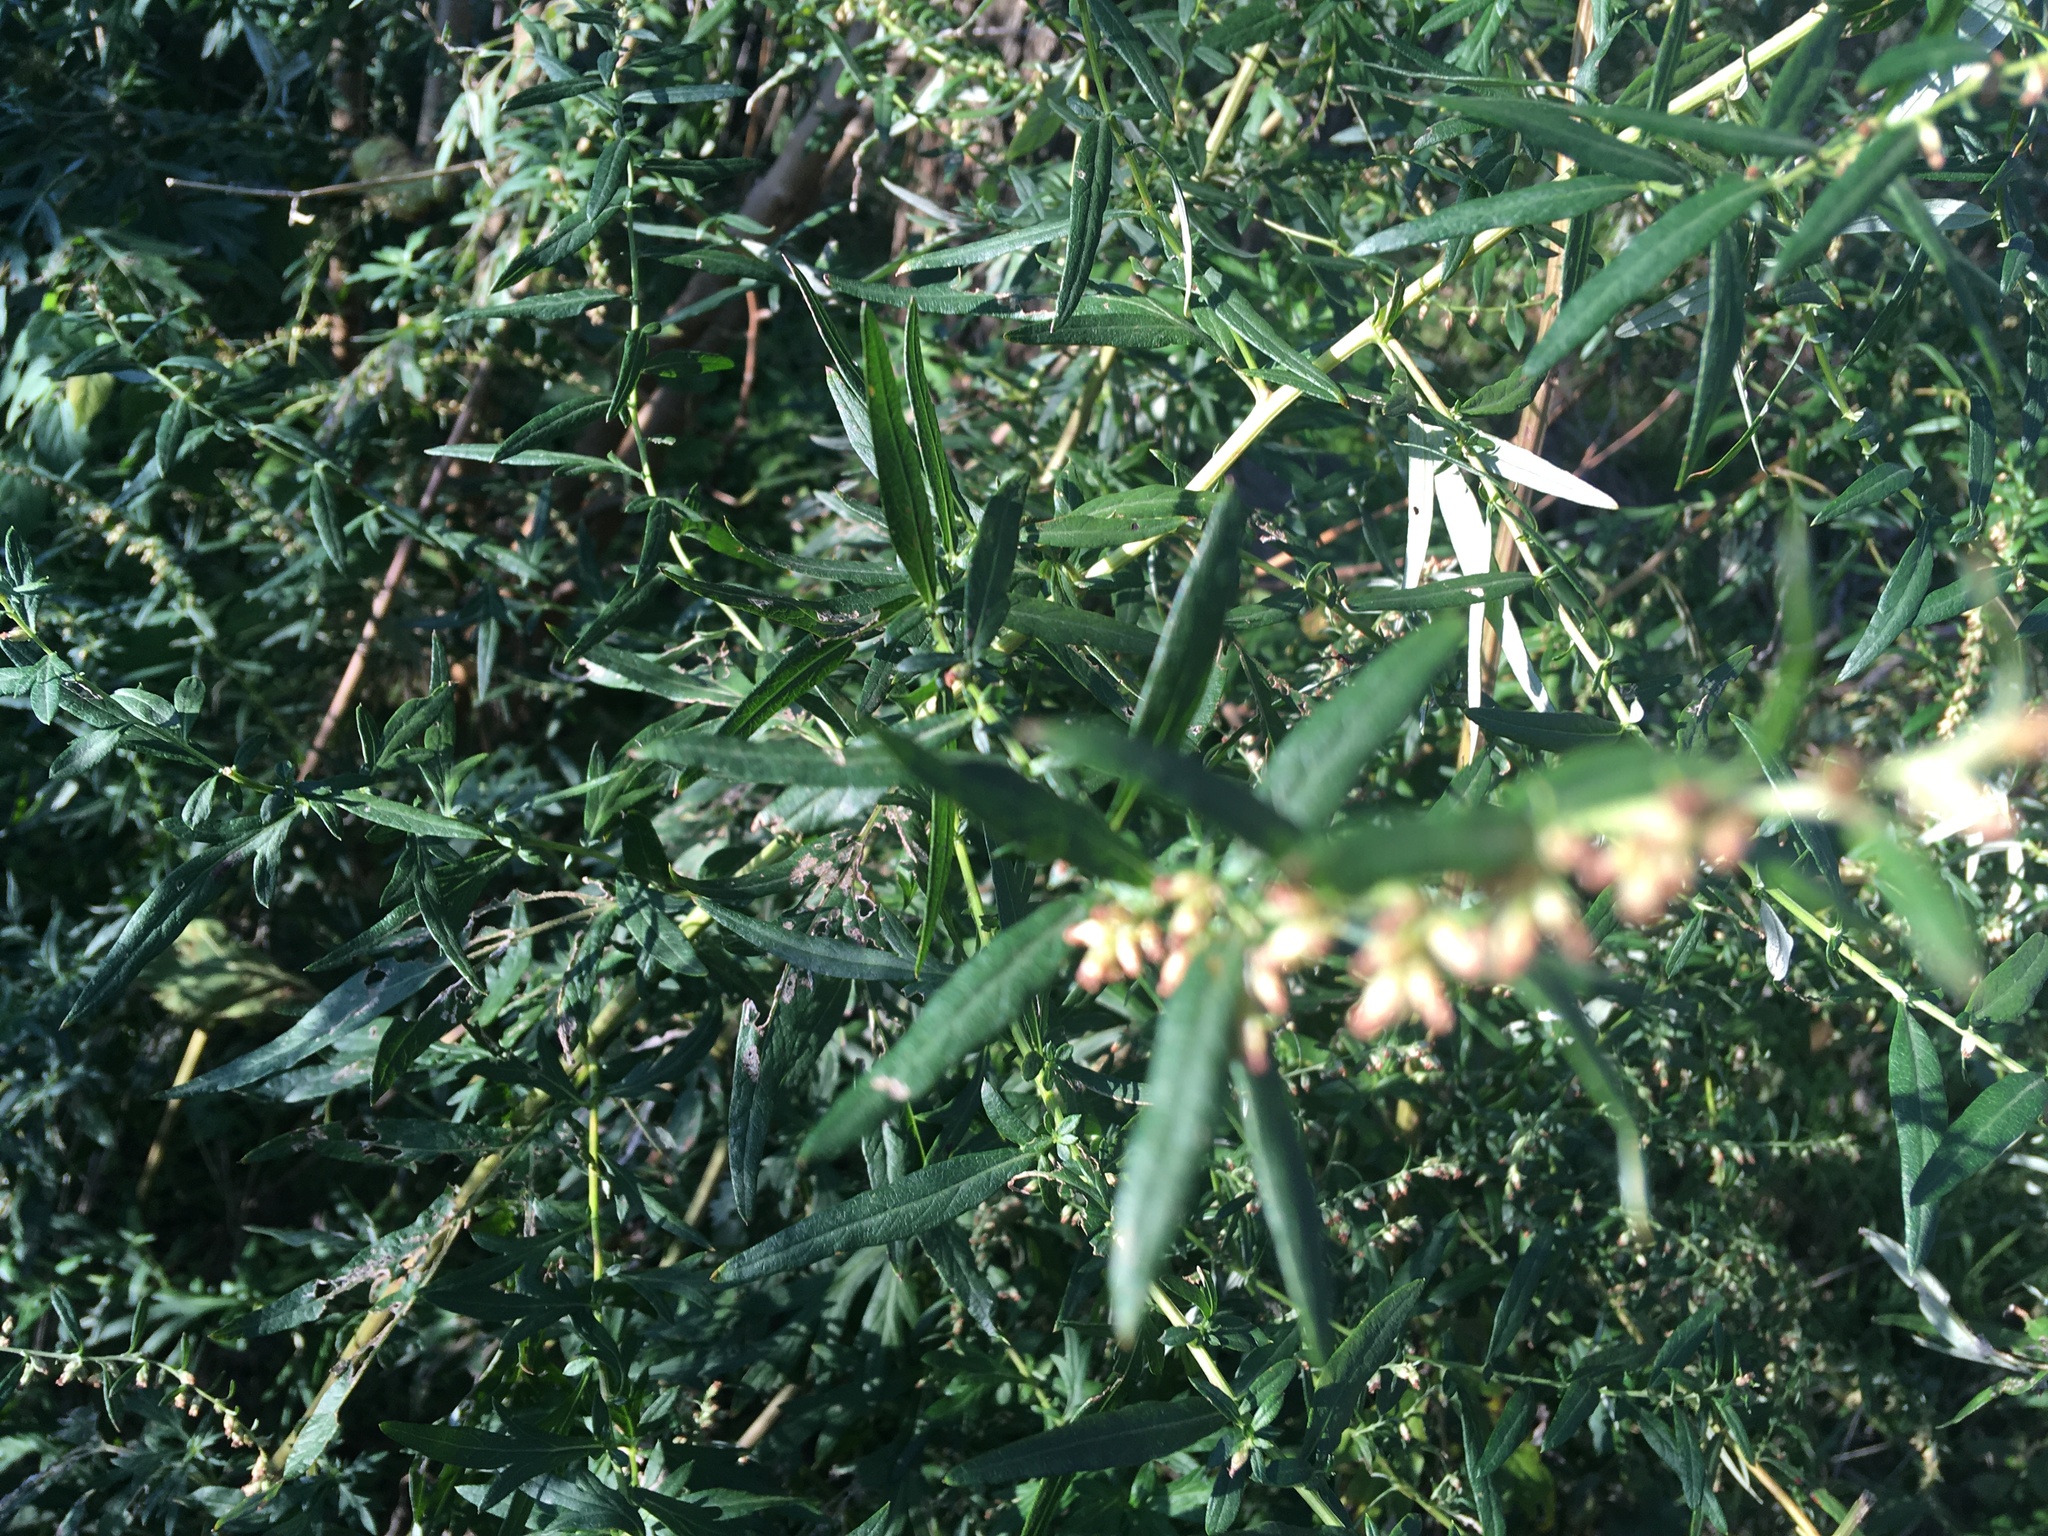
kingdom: Plantae
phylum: Tracheophyta
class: Magnoliopsida
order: Asterales
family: Asteraceae
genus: Artemisia
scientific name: Artemisia vulgaris
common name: Mugwort
